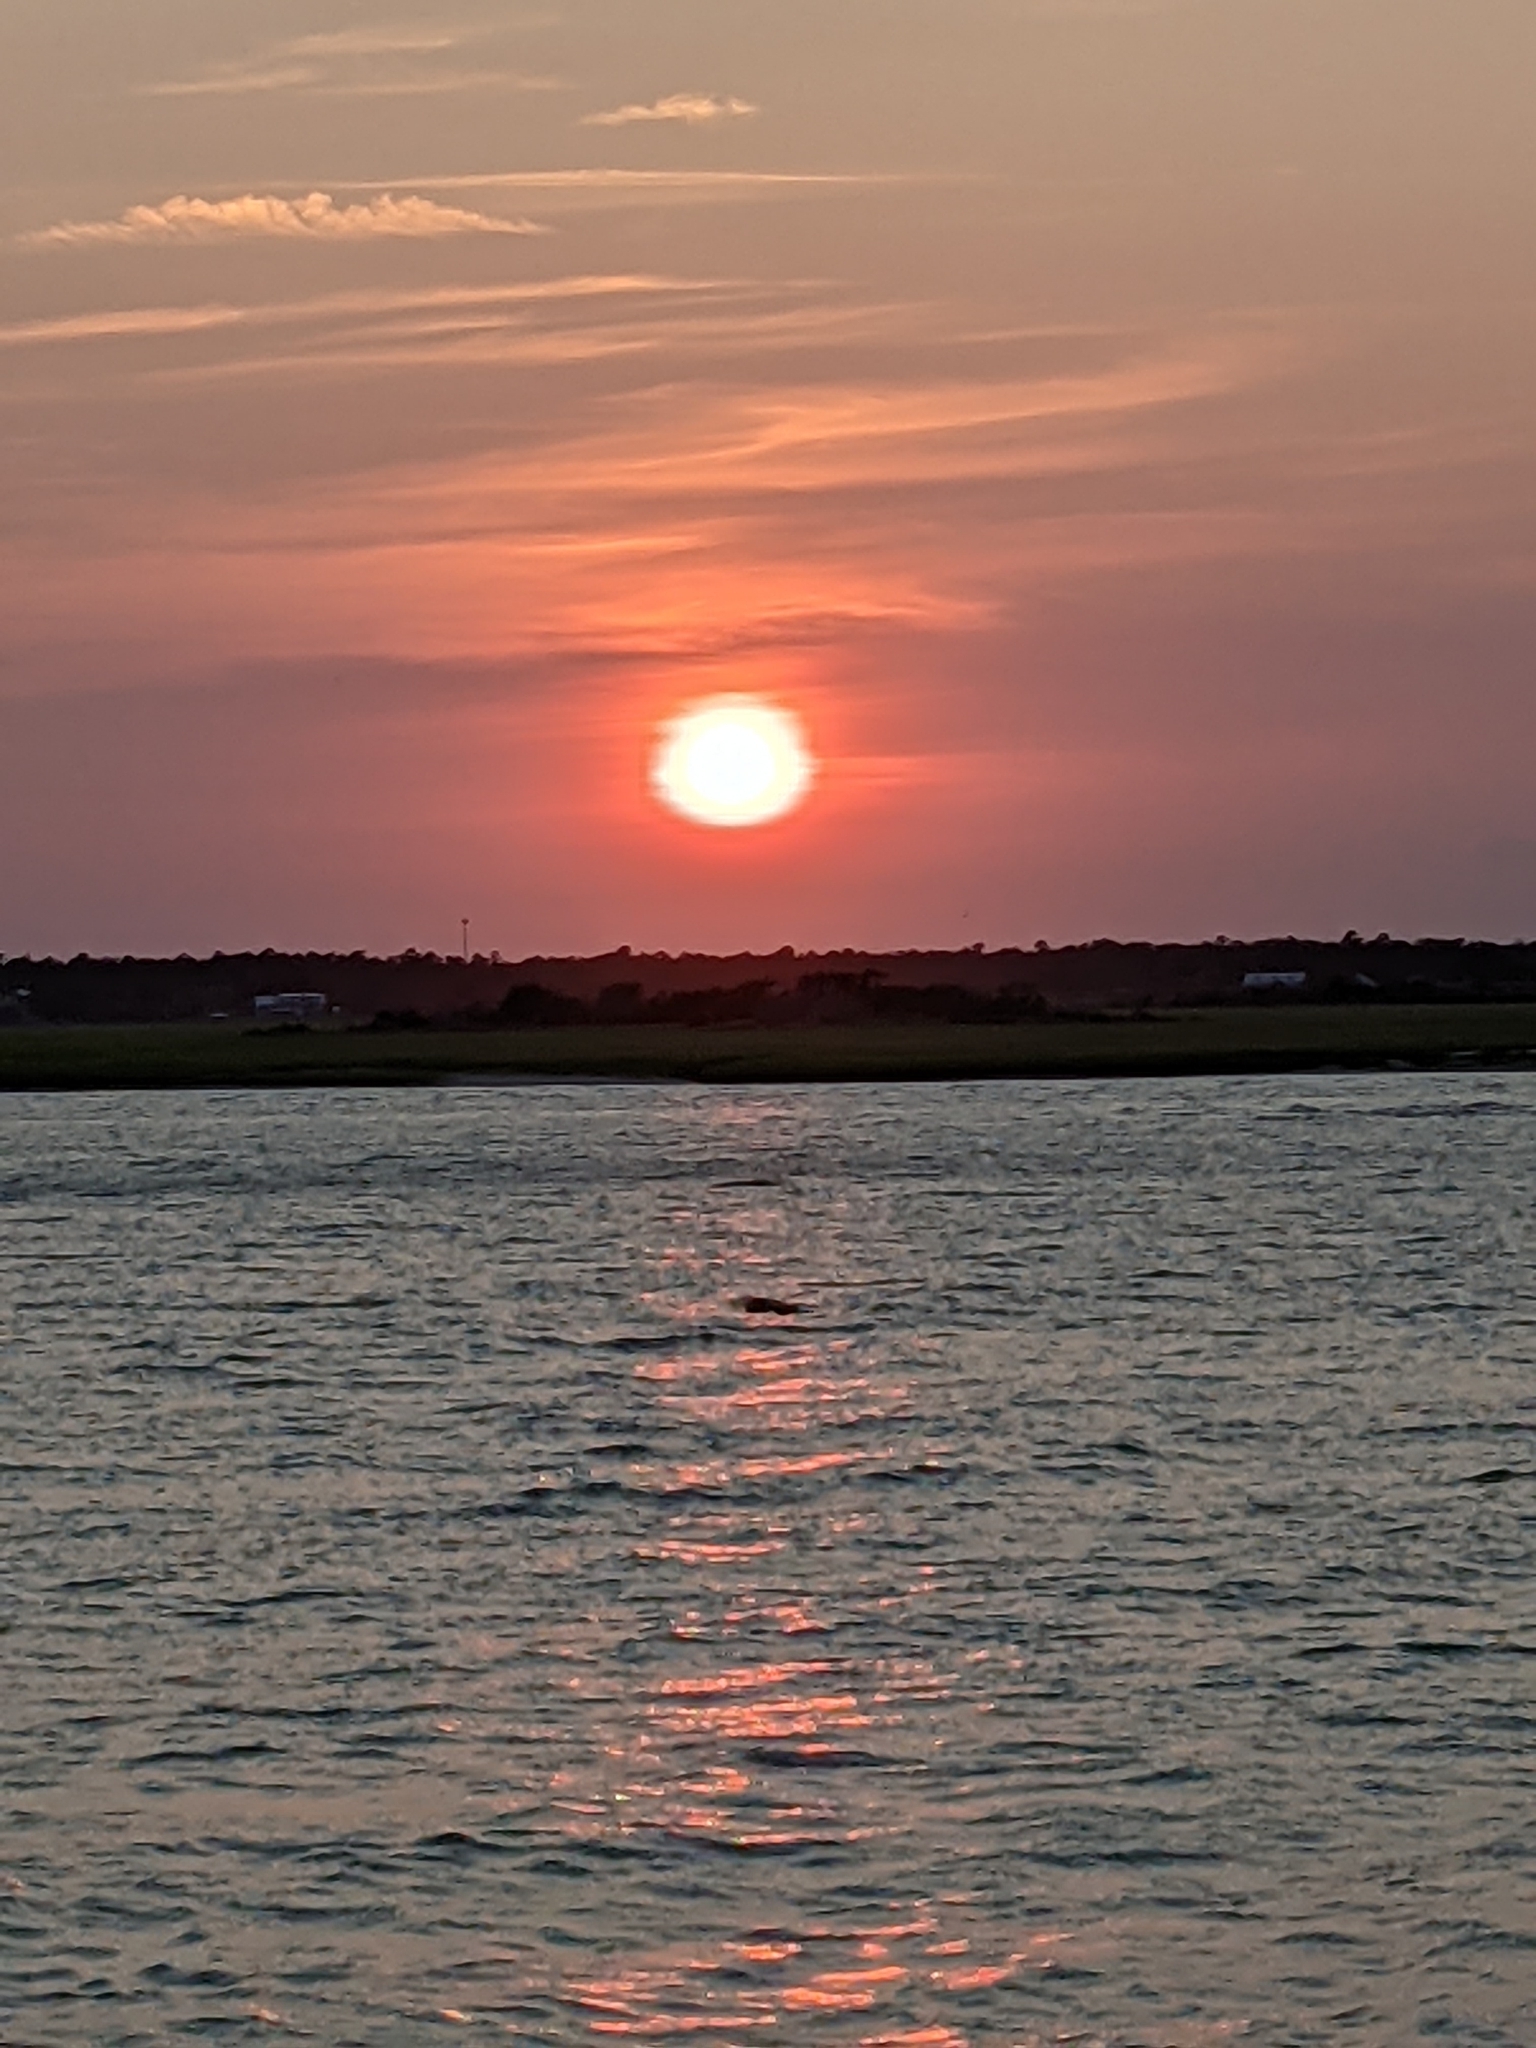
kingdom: Animalia
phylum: Chordata
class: Aves
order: Pelecaniformes
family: Ardeidae
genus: Ardea
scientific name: Ardea herodias
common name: Great blue heron
